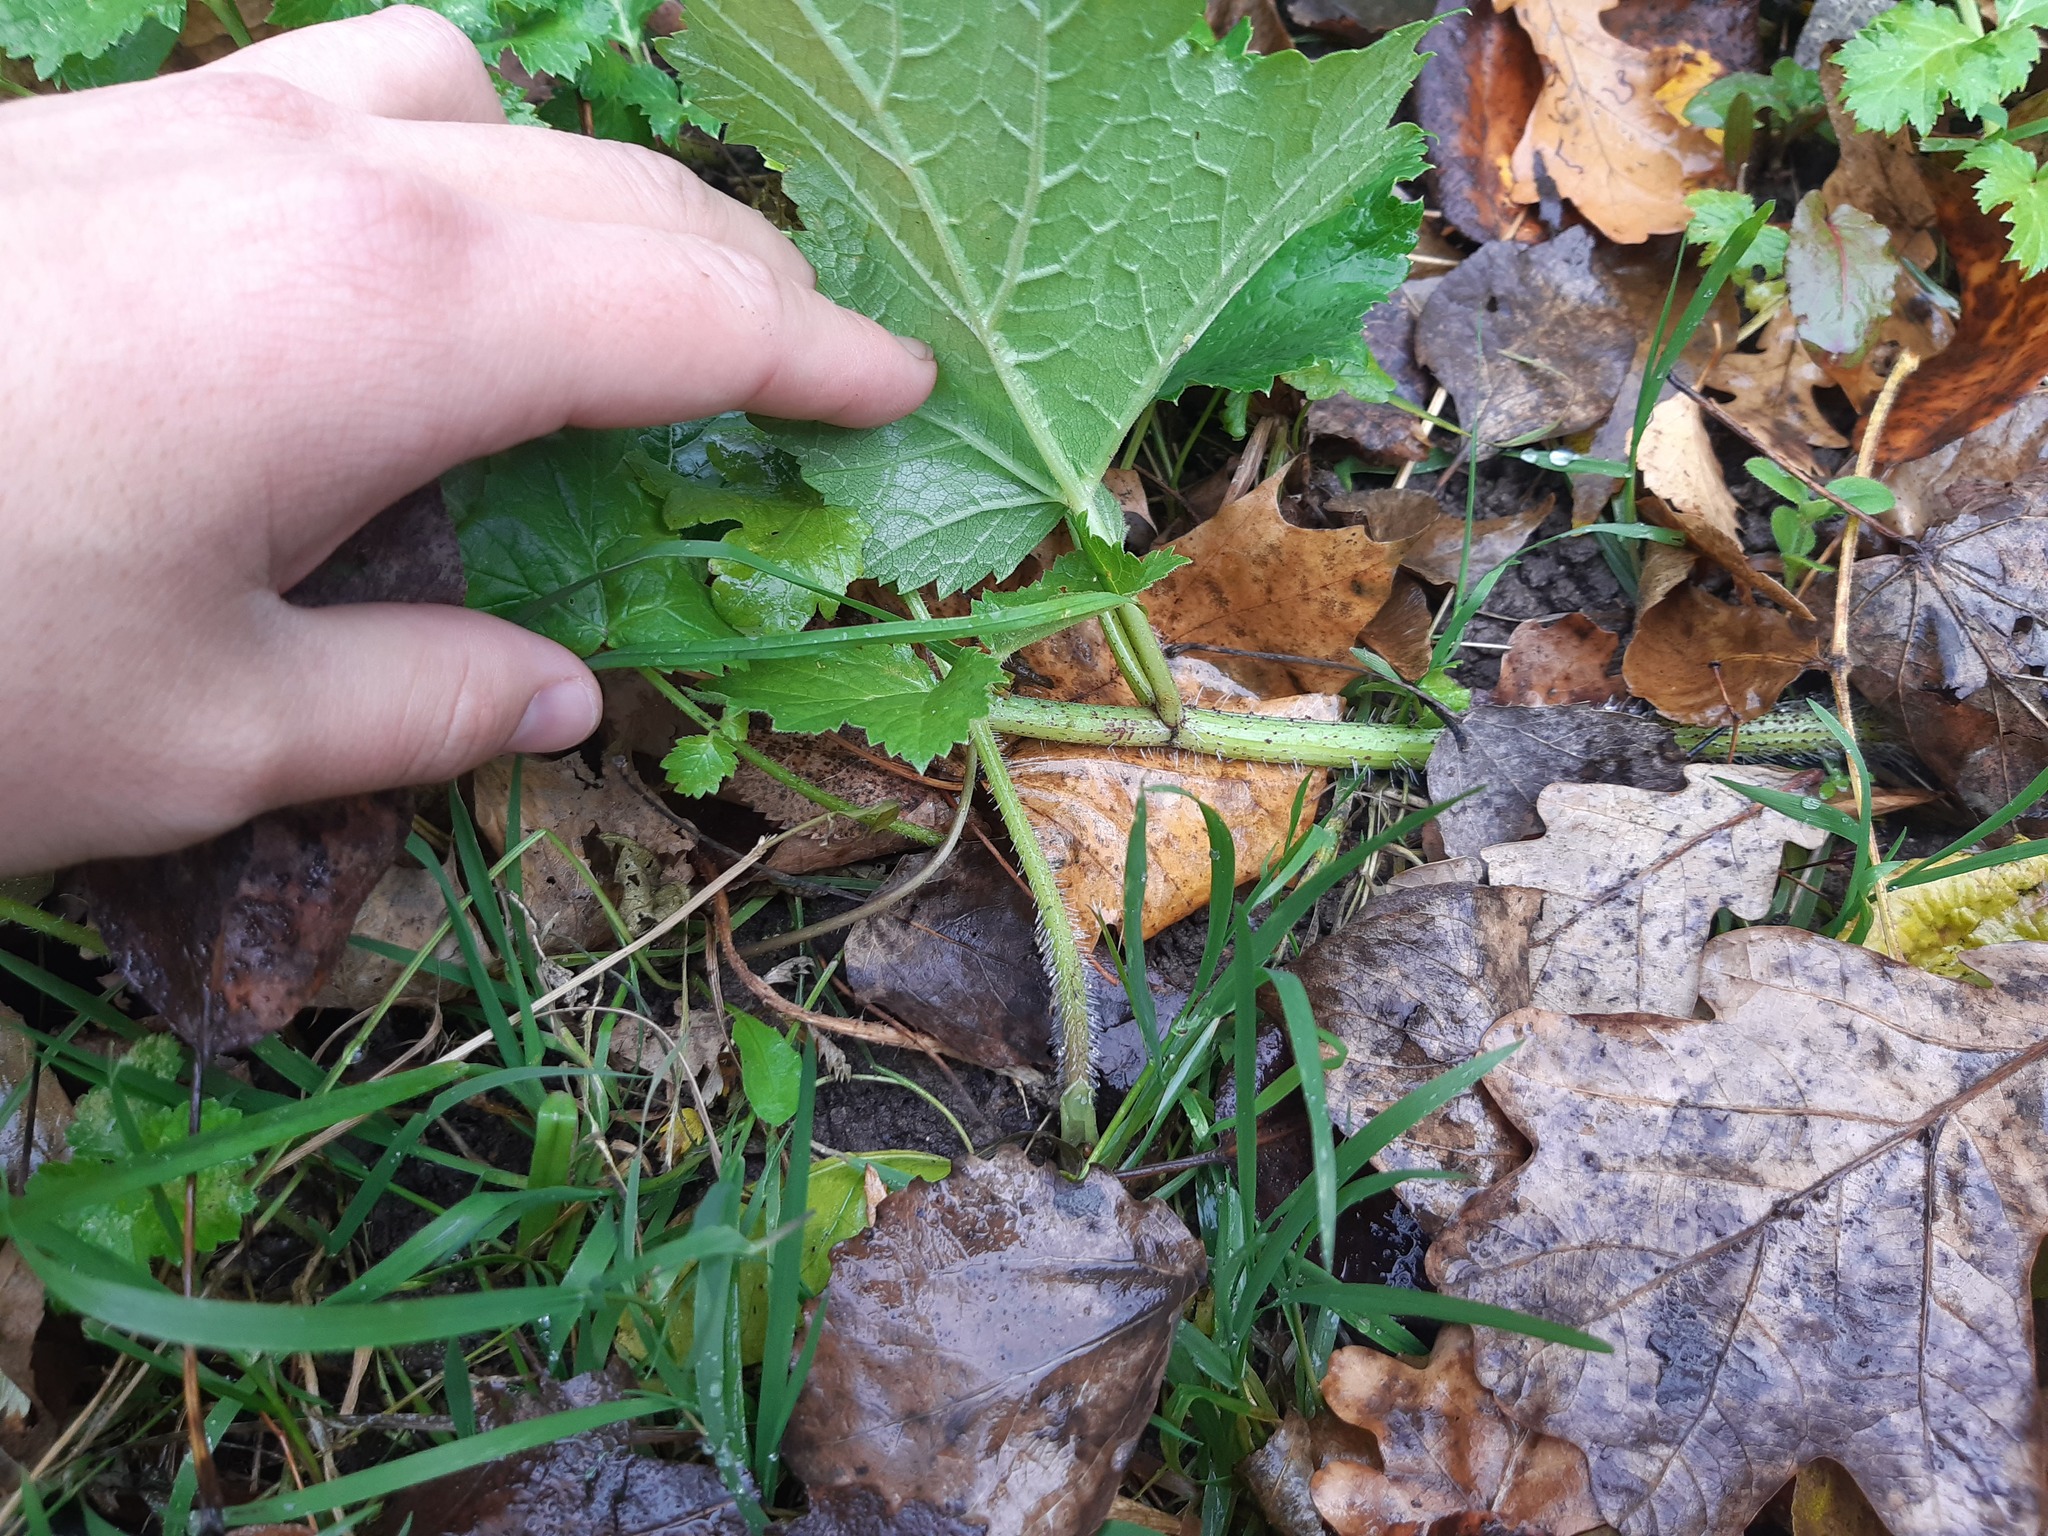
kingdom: Plantae
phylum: Tracheophyta
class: Magnoliopsida
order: Apiales
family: Apiaceae
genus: Heracleum
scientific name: Heracleum sosnowskyi
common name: Sosnowsky's hogweed
